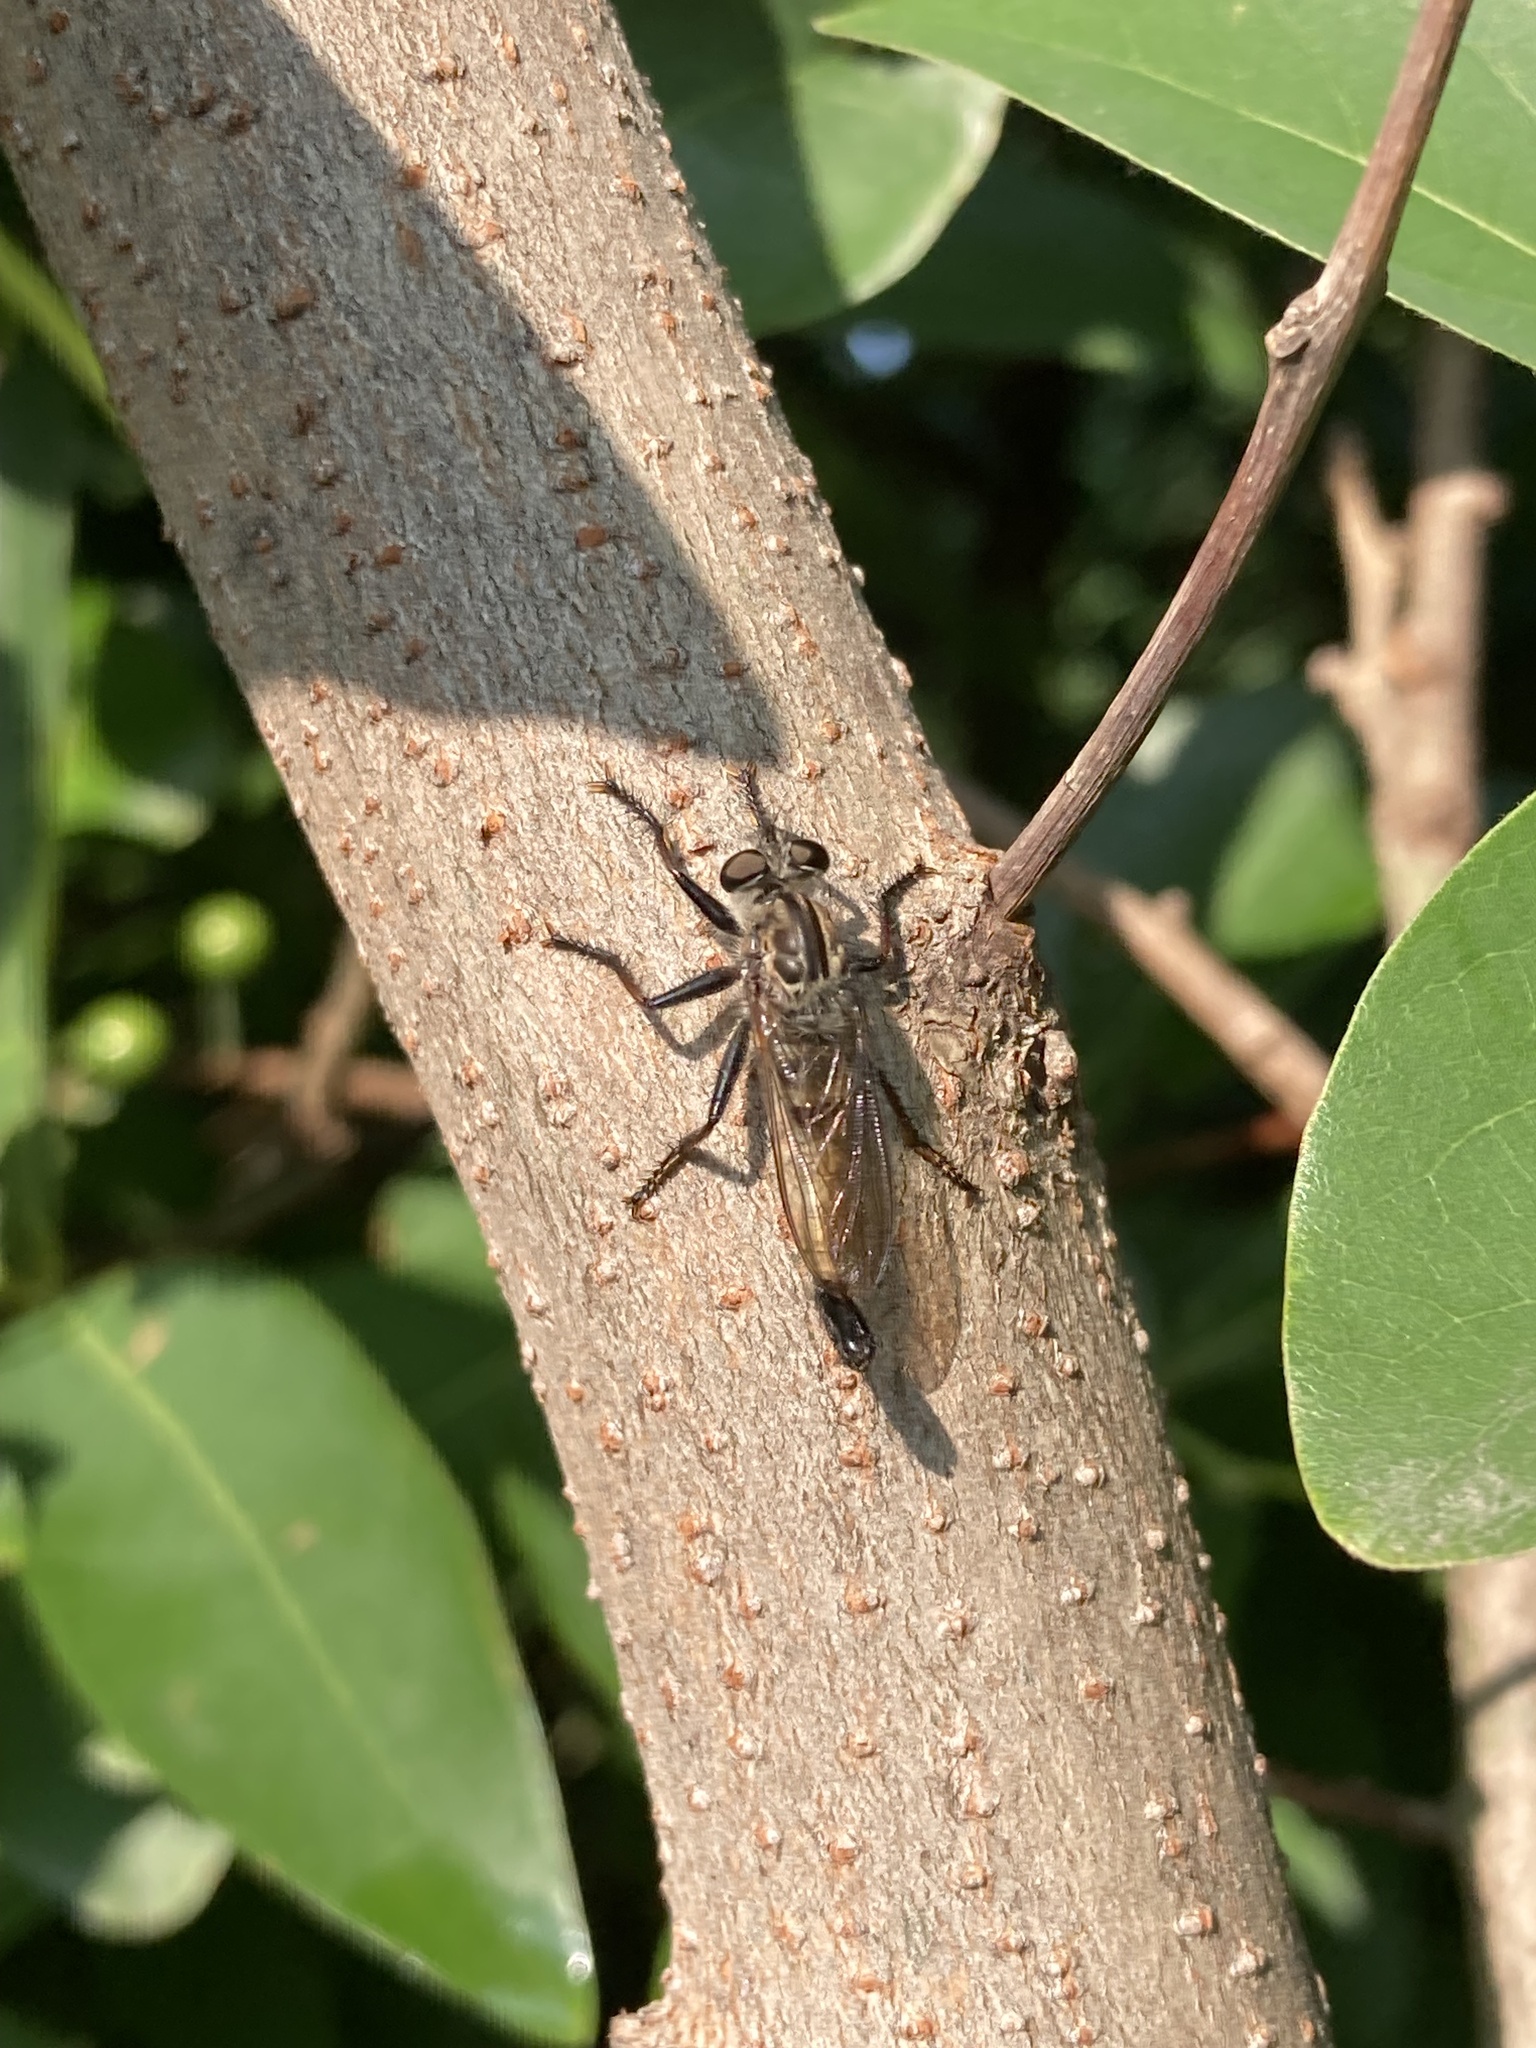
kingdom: Animalia
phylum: Arthropoda
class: Insecta
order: Diptera
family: Asilidae
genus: Efferia
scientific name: Efferia aestuans
